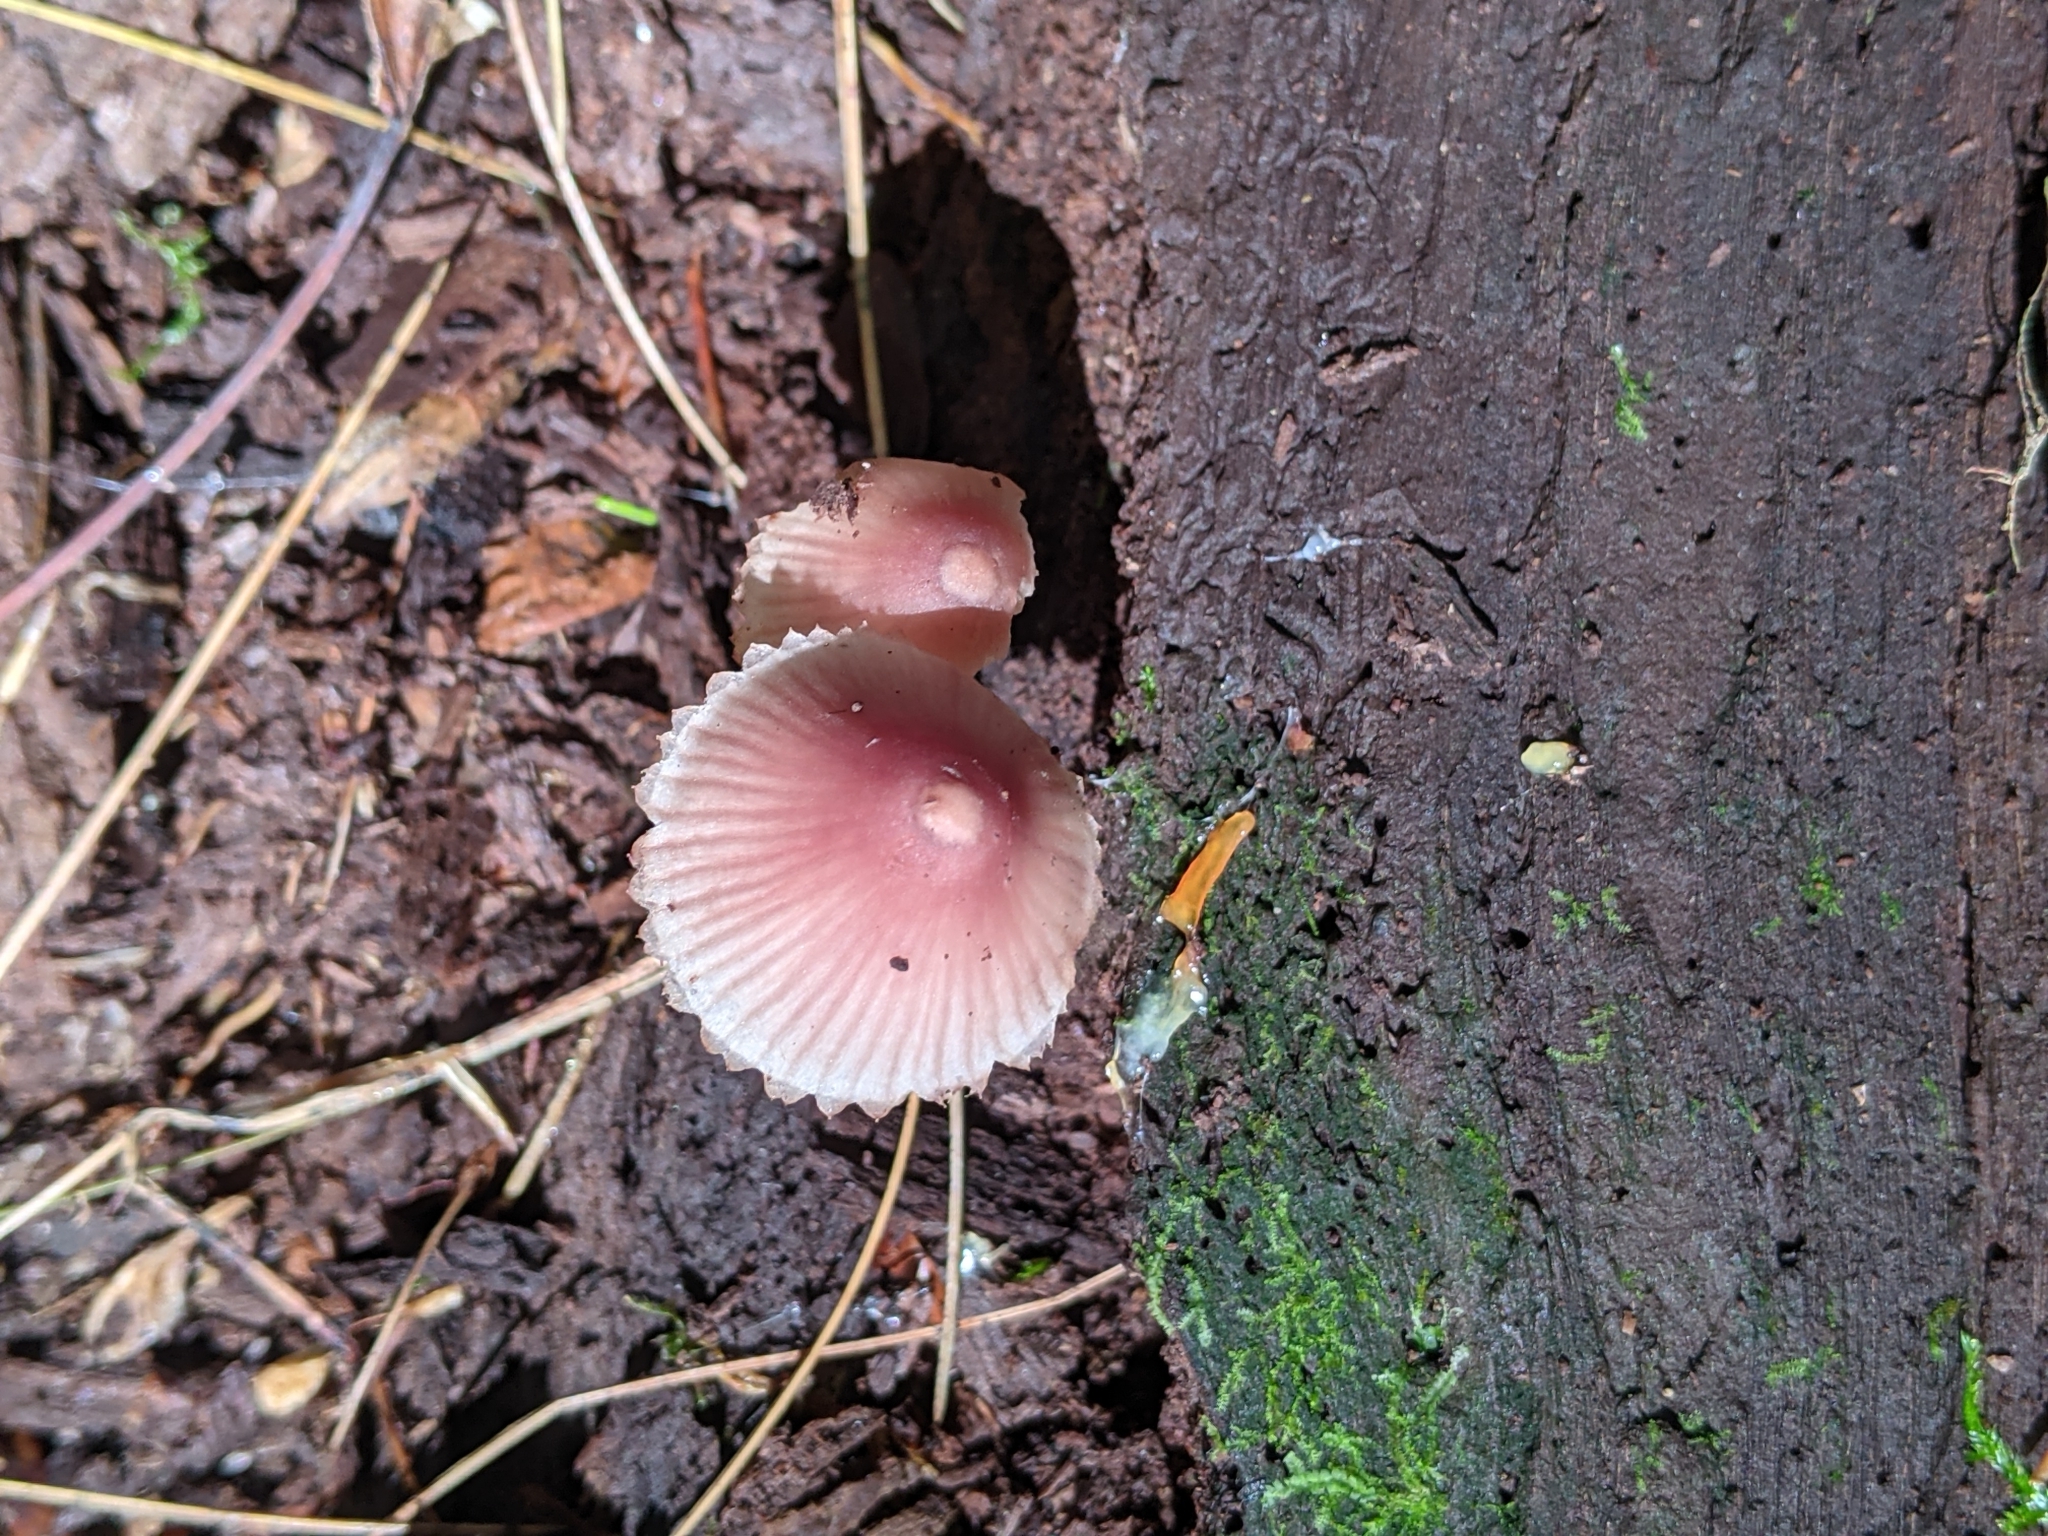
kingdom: Fungi
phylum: Basidiomycota
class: Agaricomycetes
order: Agaricales
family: Mycenaceae
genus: Mycena
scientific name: Mycena haematopus
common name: Burgundydrop bonnet
